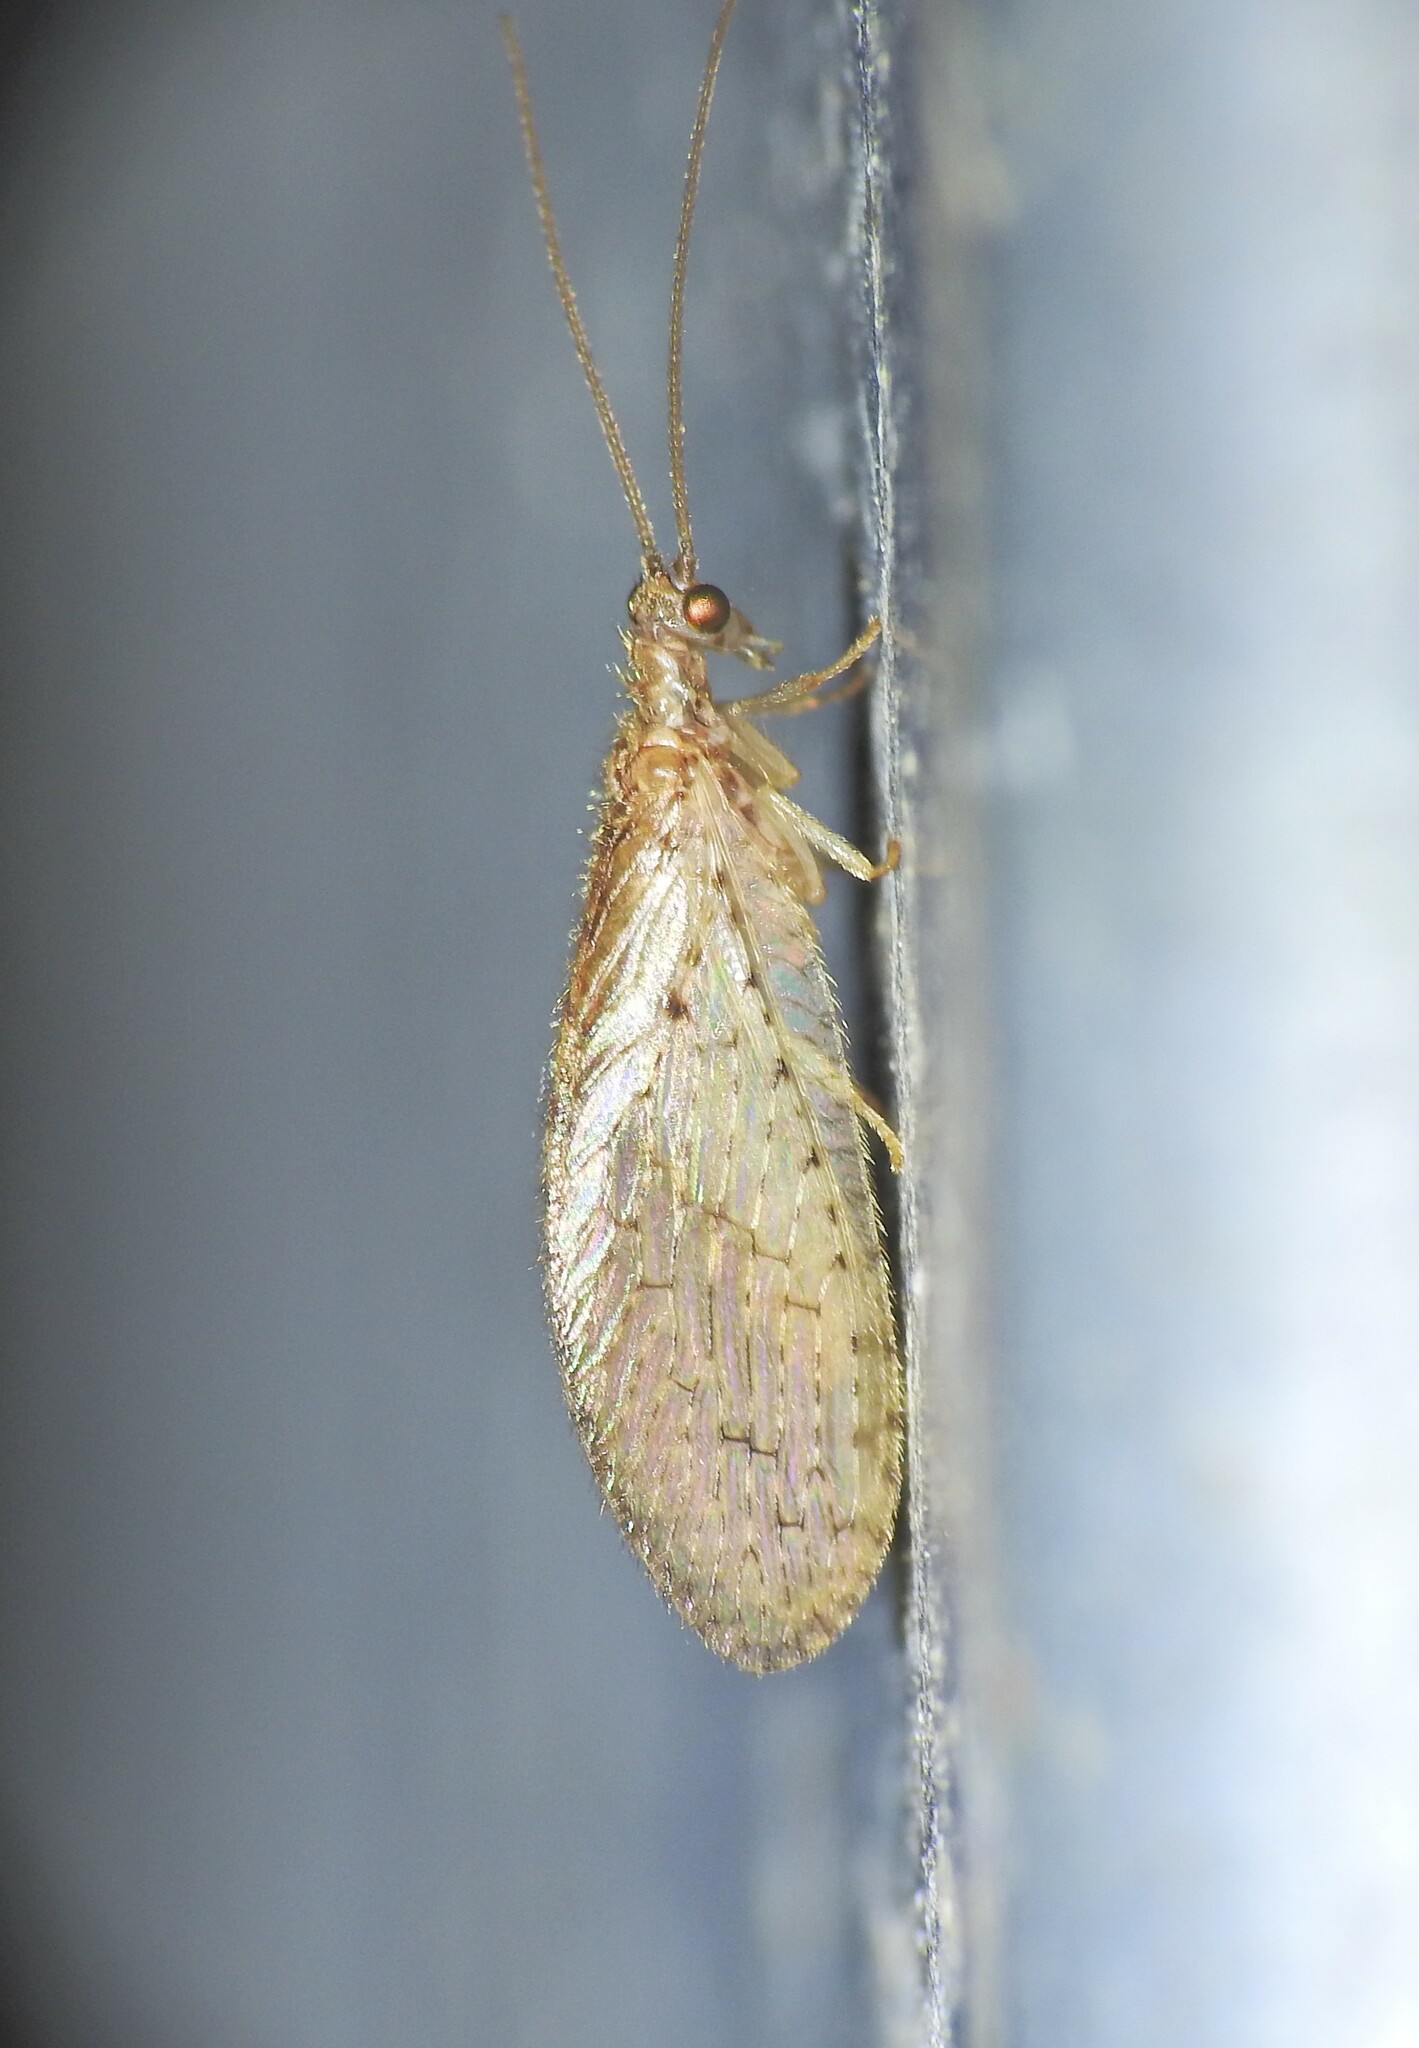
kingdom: Animalia
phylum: Arthropoda
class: Insecta
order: Neuroptera
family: Hemerobiidae
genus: Micromus
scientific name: Micromus tasmaniae
